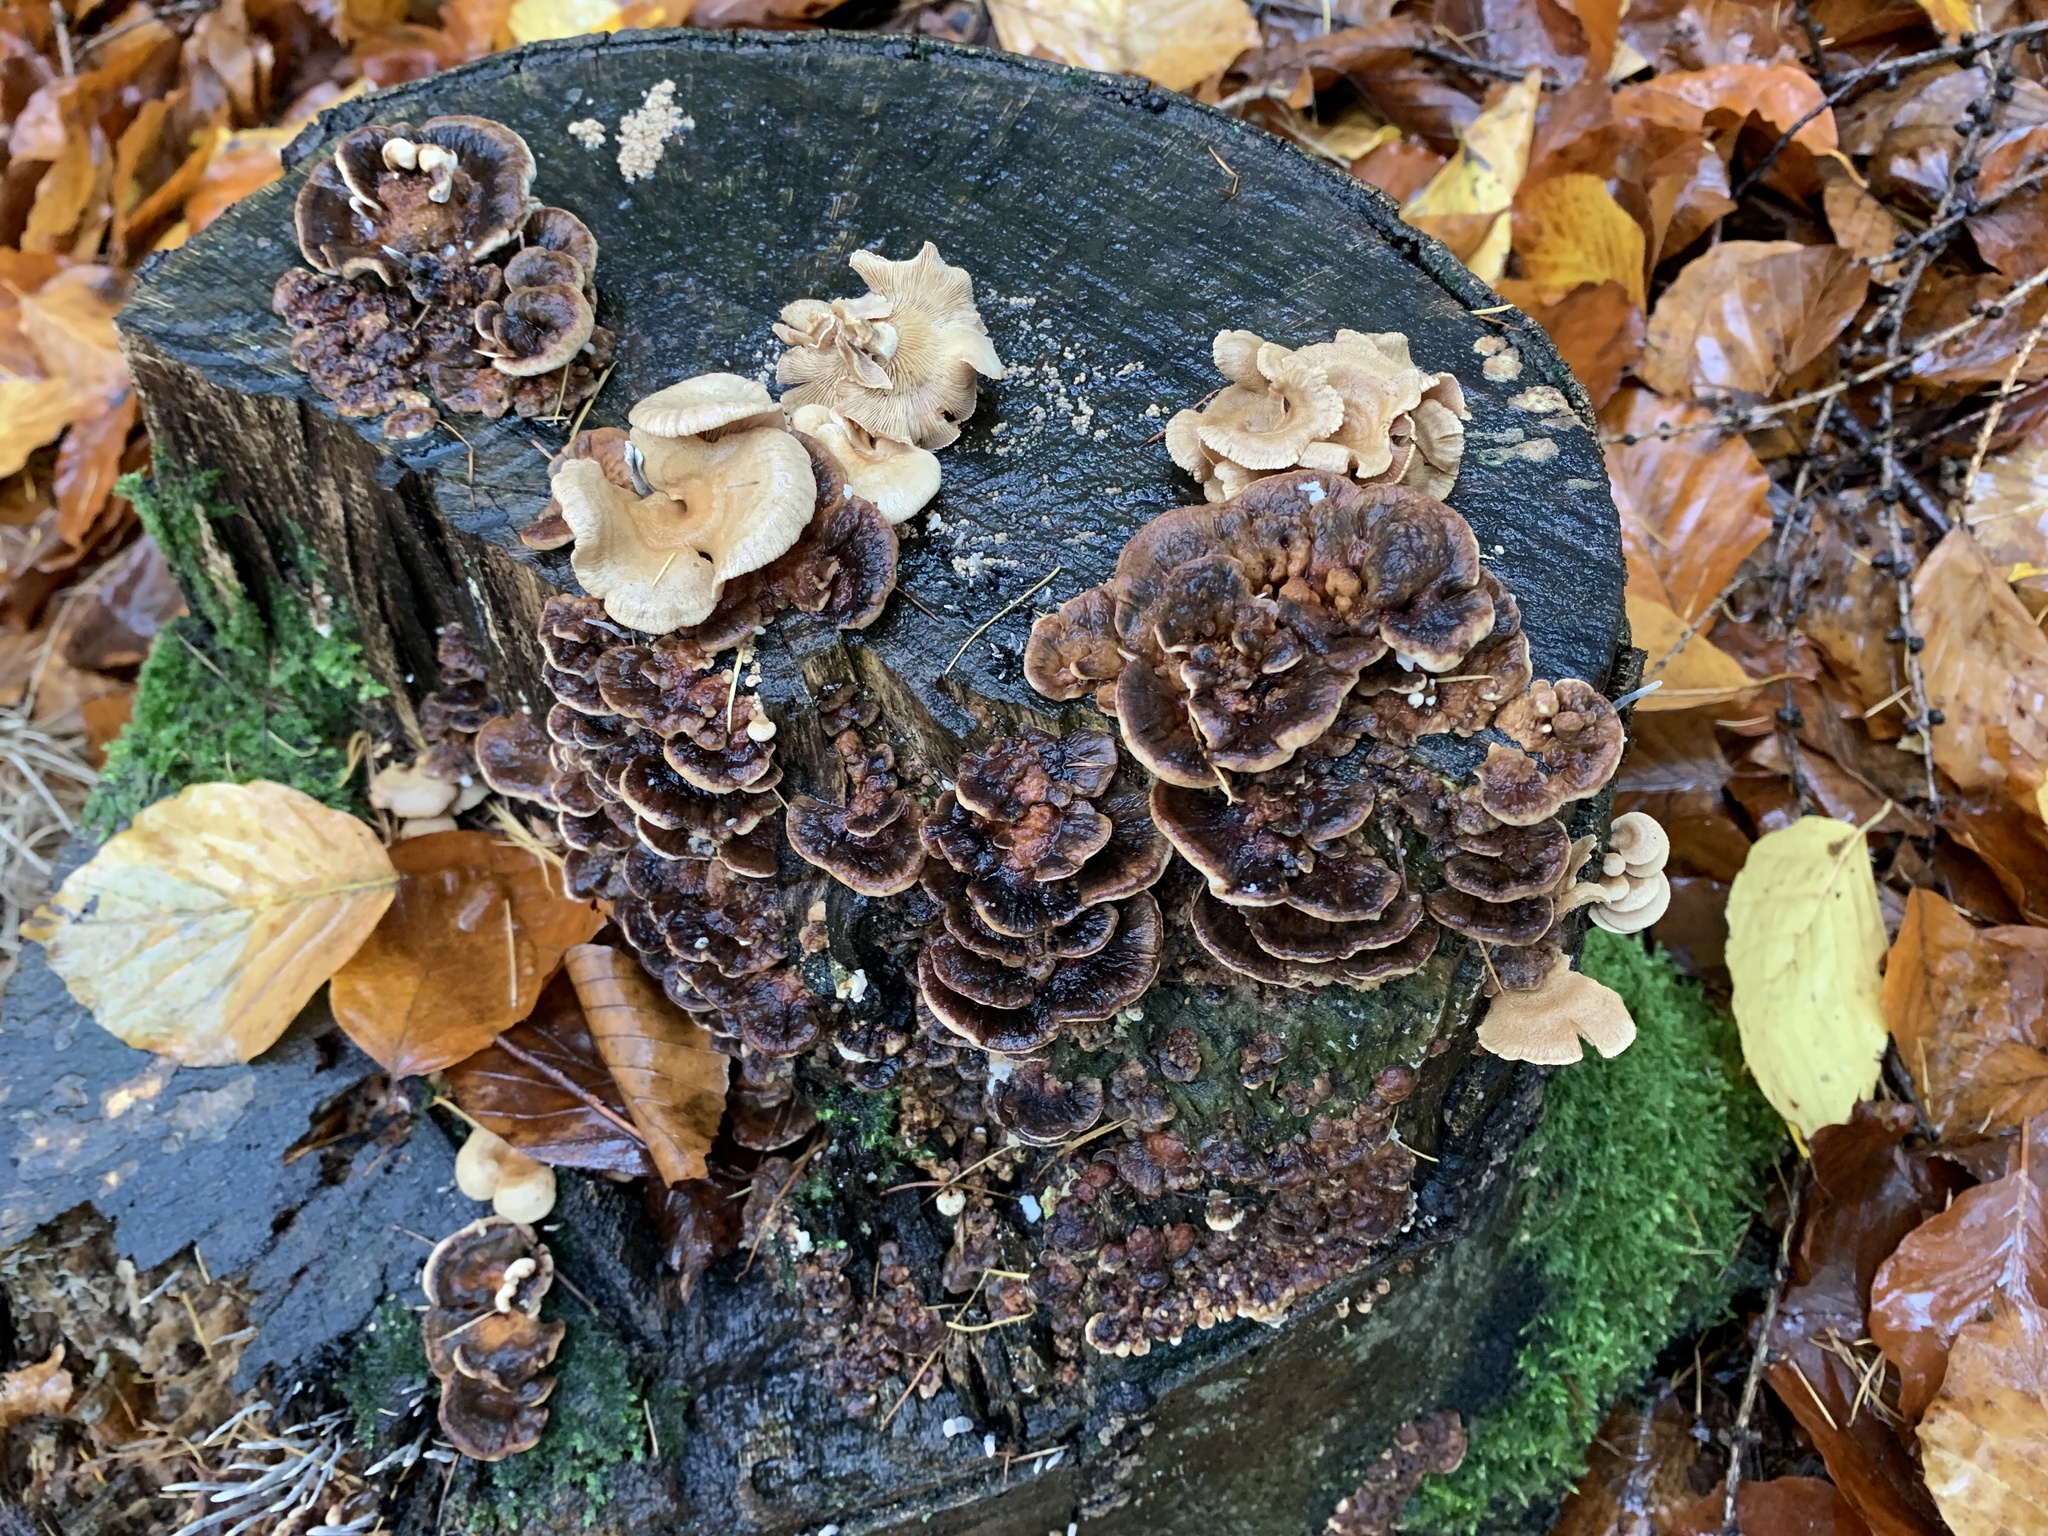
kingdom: Fungi
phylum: Basidiomycota
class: Agaricomycetes
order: Agaricales
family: Mycenaceae
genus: Panellus
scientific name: Panellus stipticus
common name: Bitter oysterling
